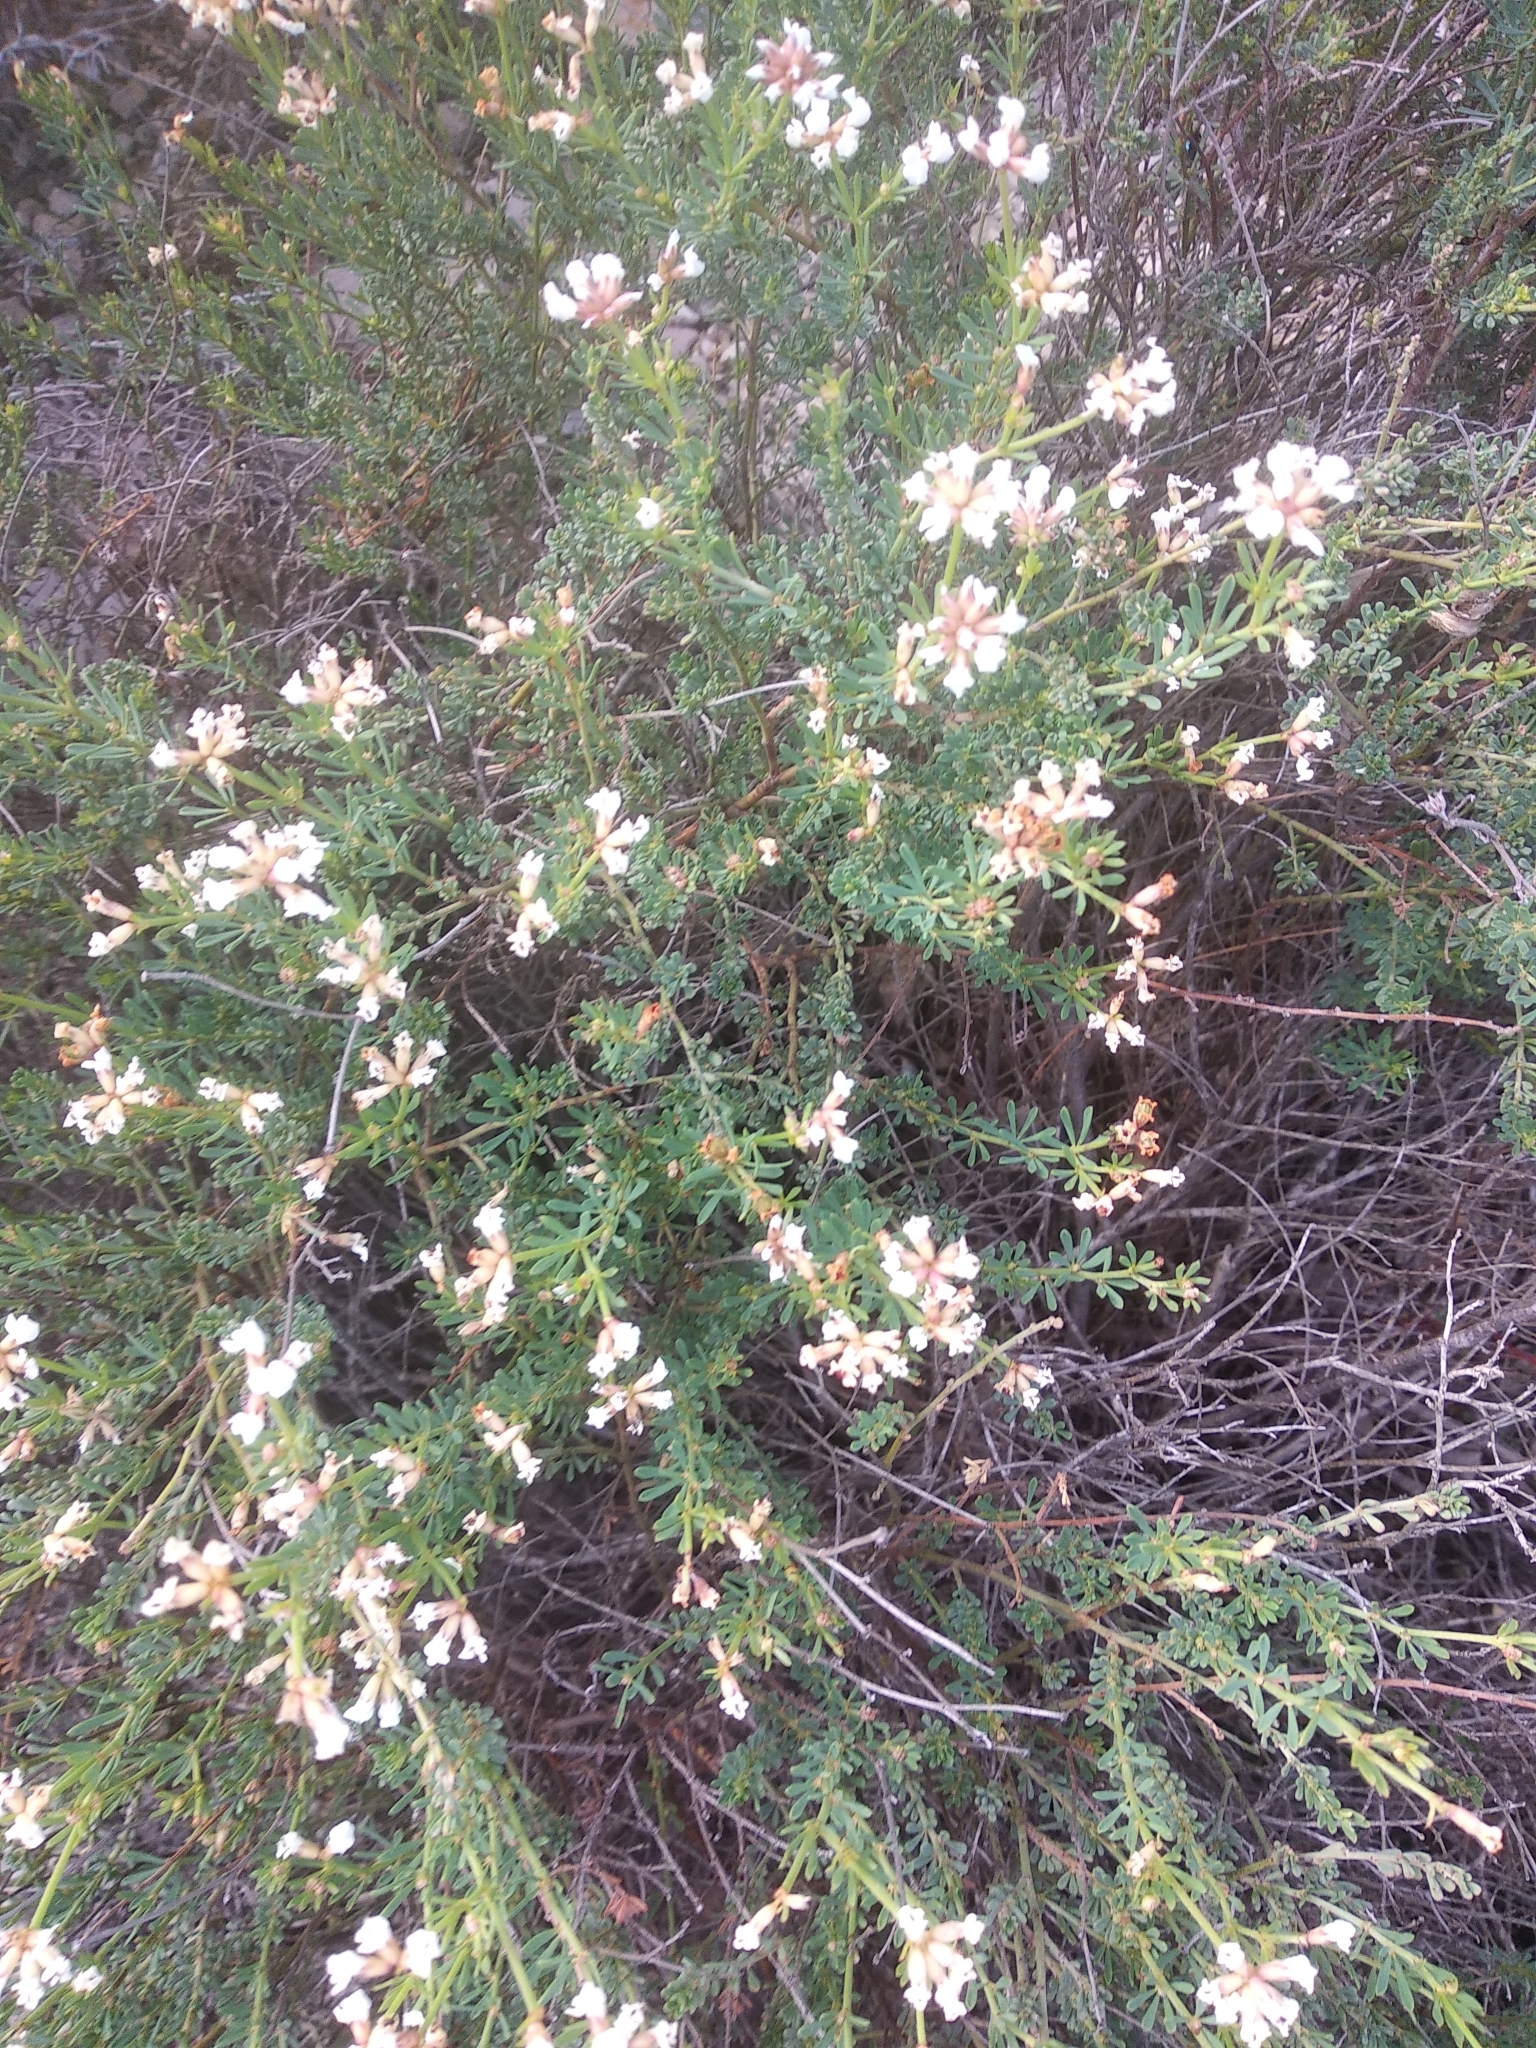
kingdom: Plantae
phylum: Tracheophyta
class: Magnoliopsida
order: Fabales
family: Fabaceae
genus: Lotus
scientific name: Lotus dorycnium
